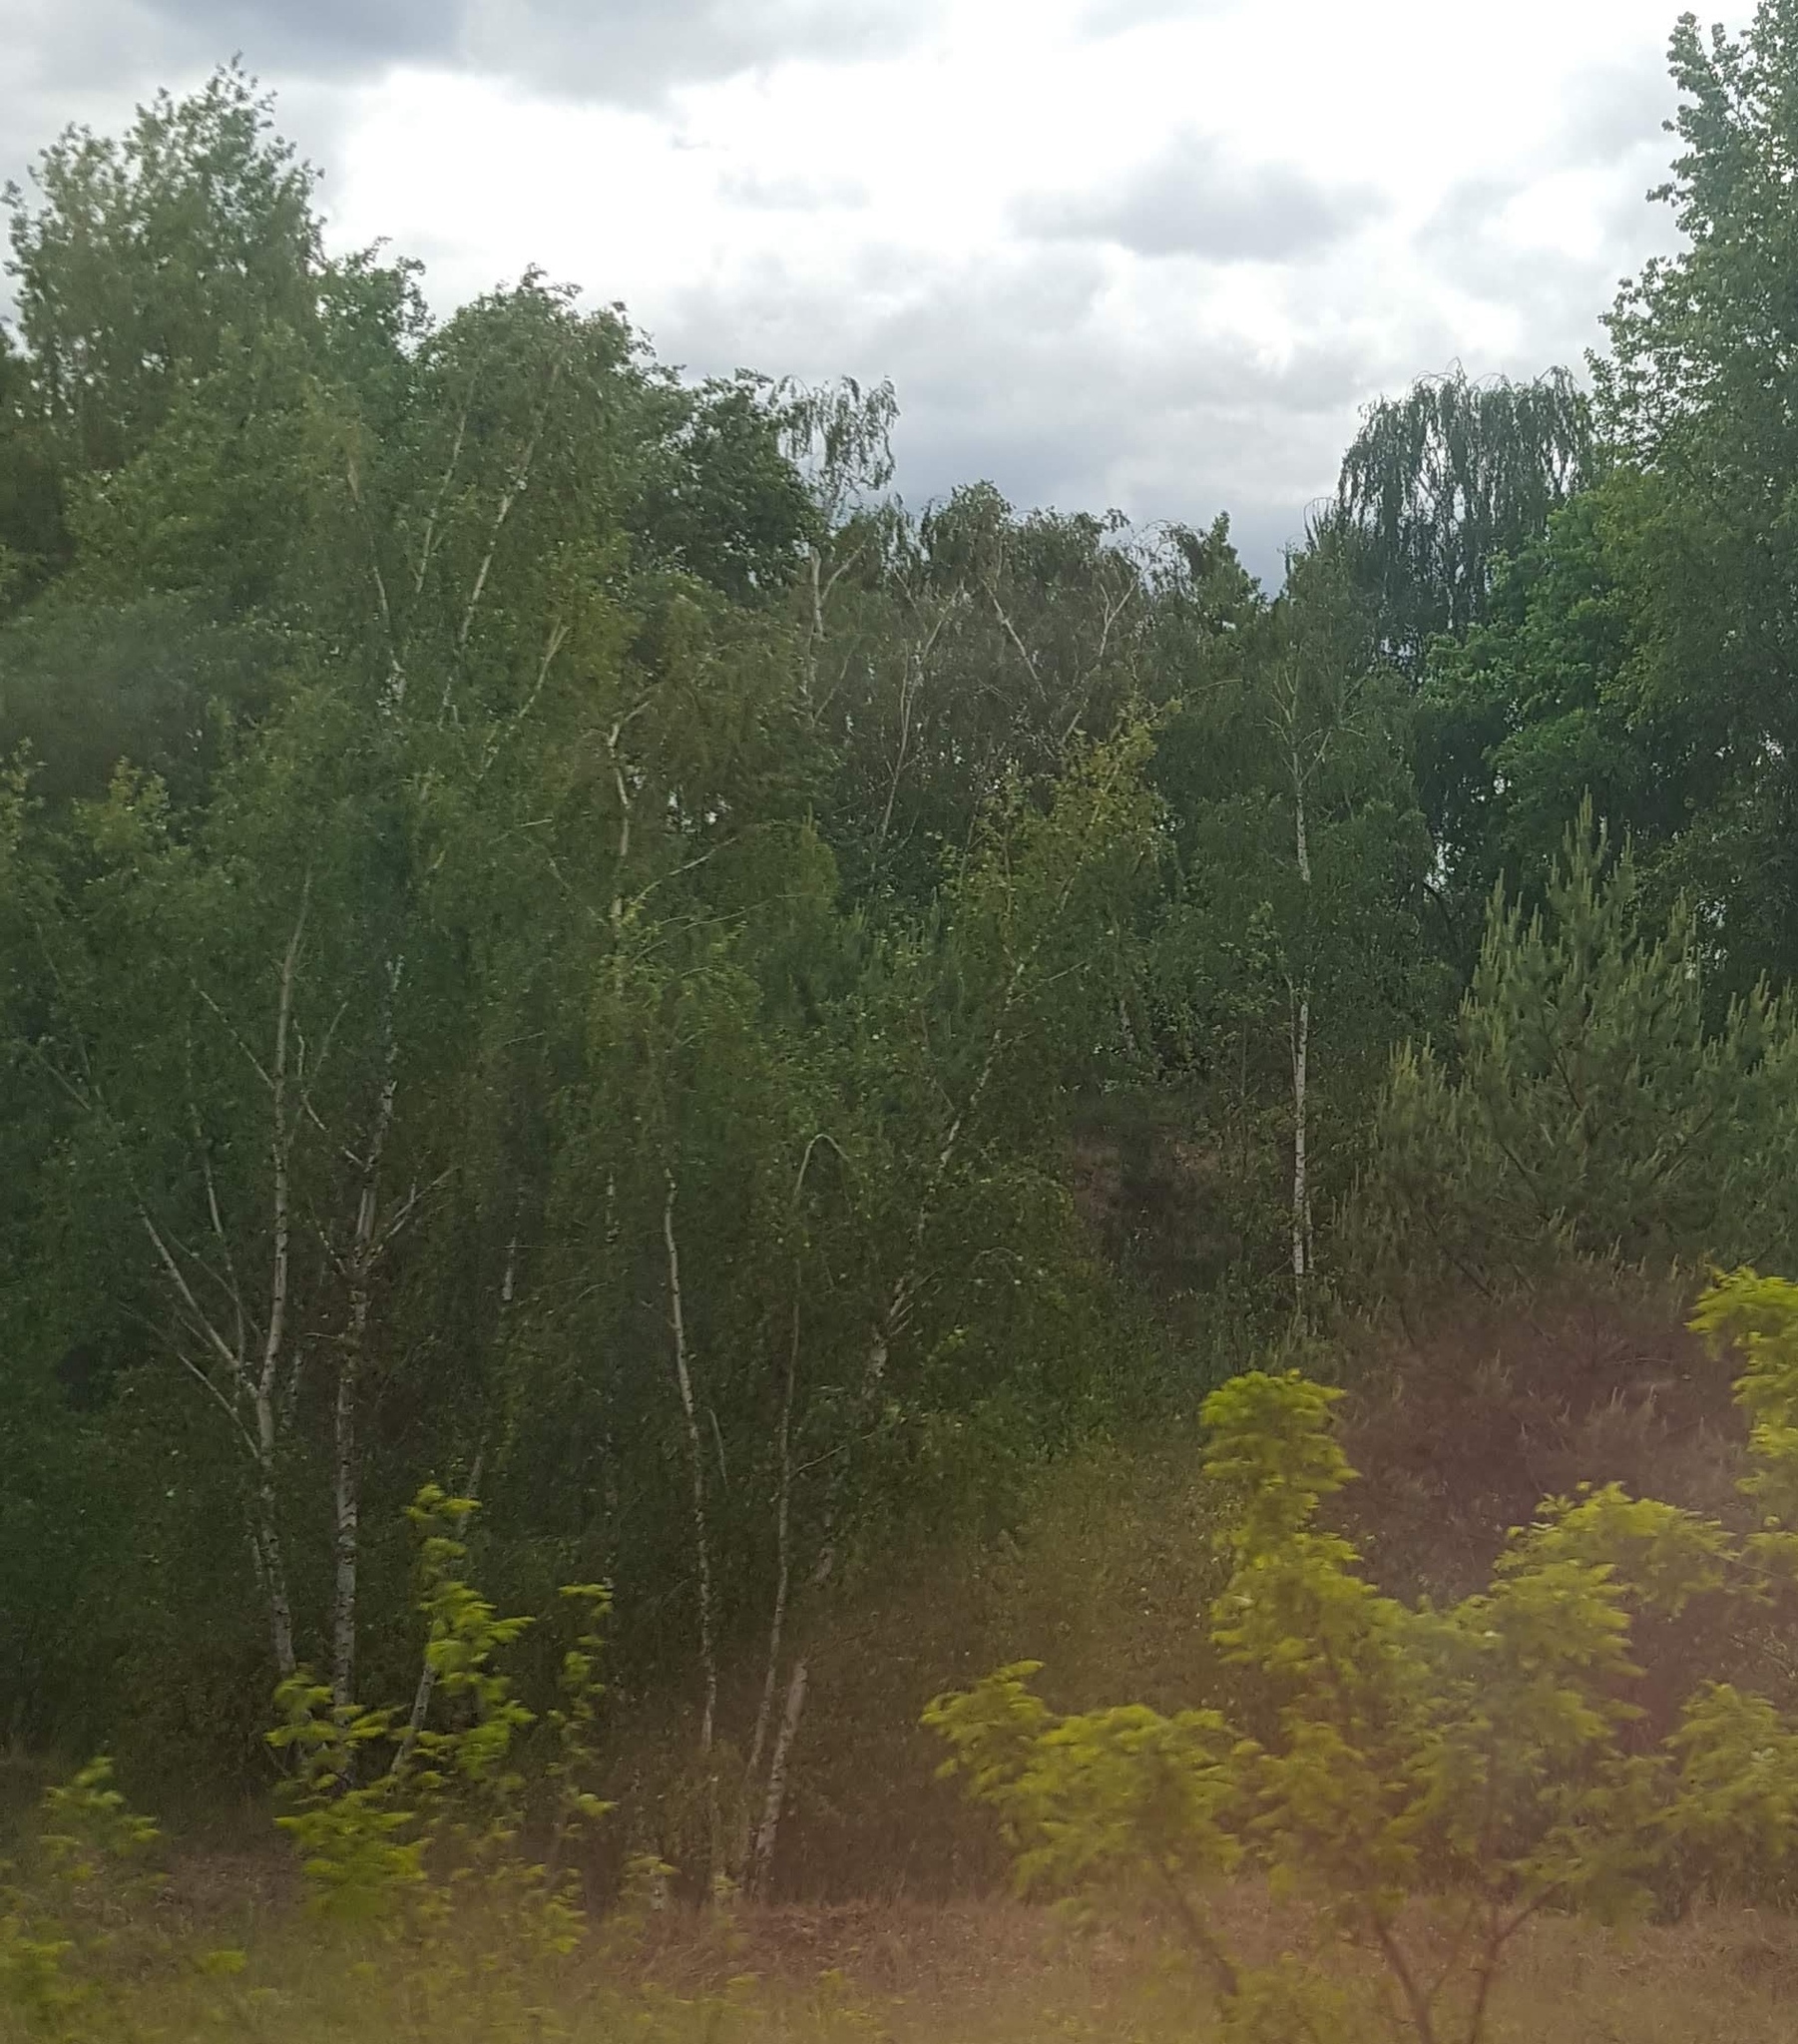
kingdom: Plantae
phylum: Tracheophyta
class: Magnoliopsida
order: Fagales
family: Betulaceae
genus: Betula
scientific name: Betula pendula
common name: Silver birch
